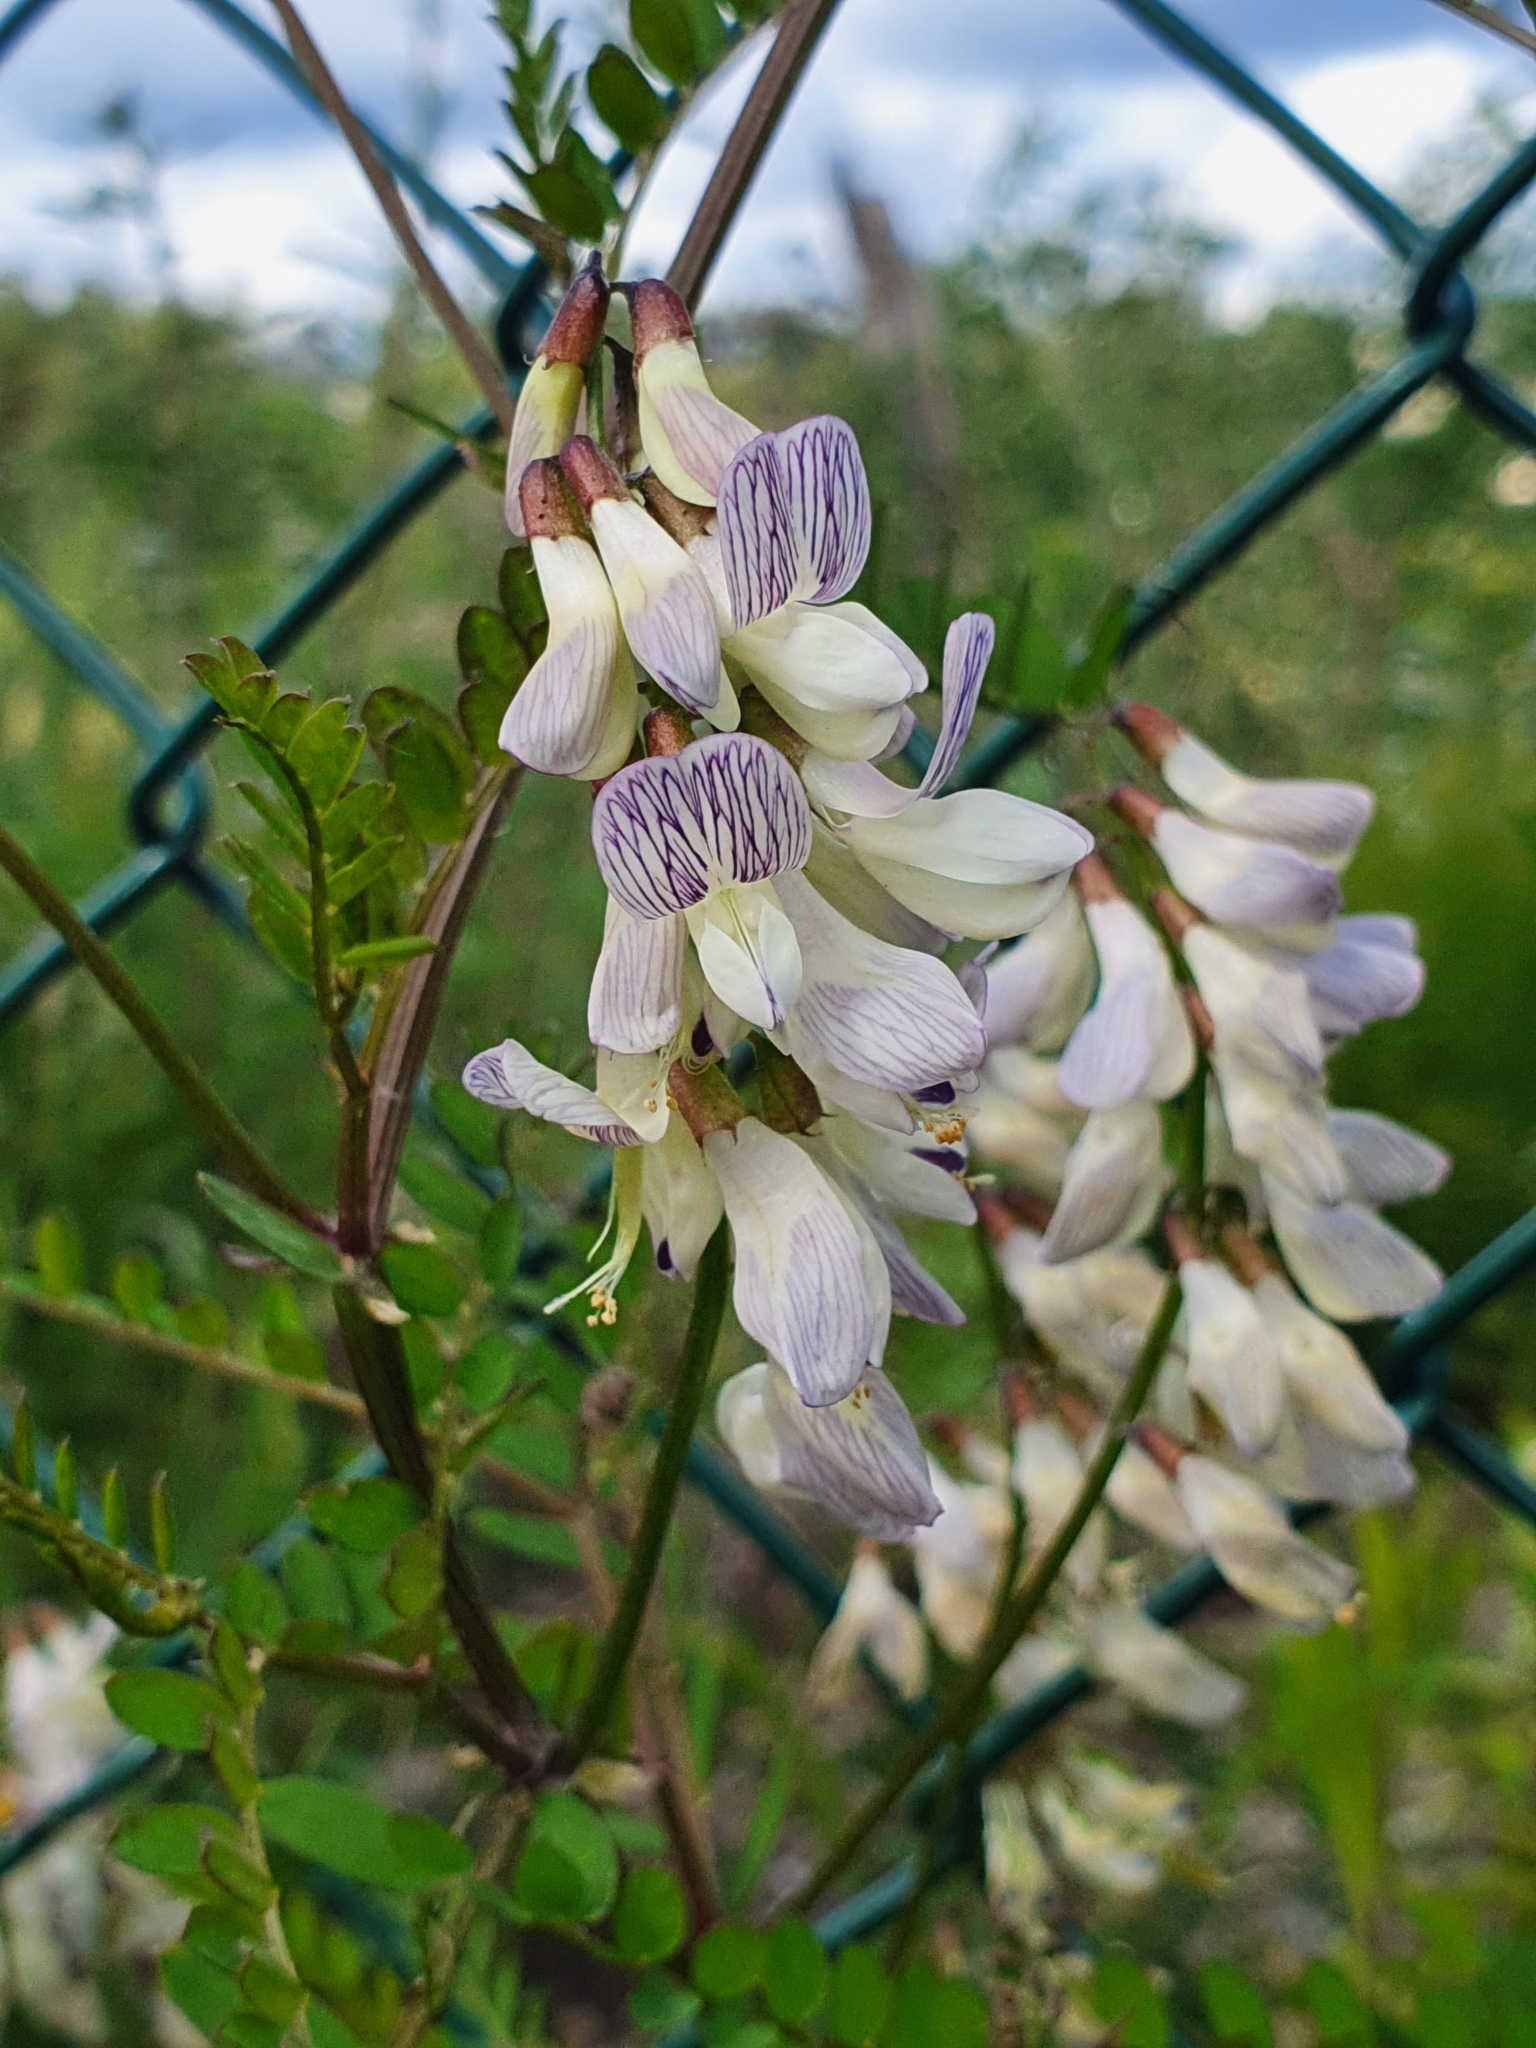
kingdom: Plantae
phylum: Tracheophyta
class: Magnoliopsida
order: Fabales
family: Fabaceae
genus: Vicia
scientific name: Vicia sylvatica
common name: Wood vetch
